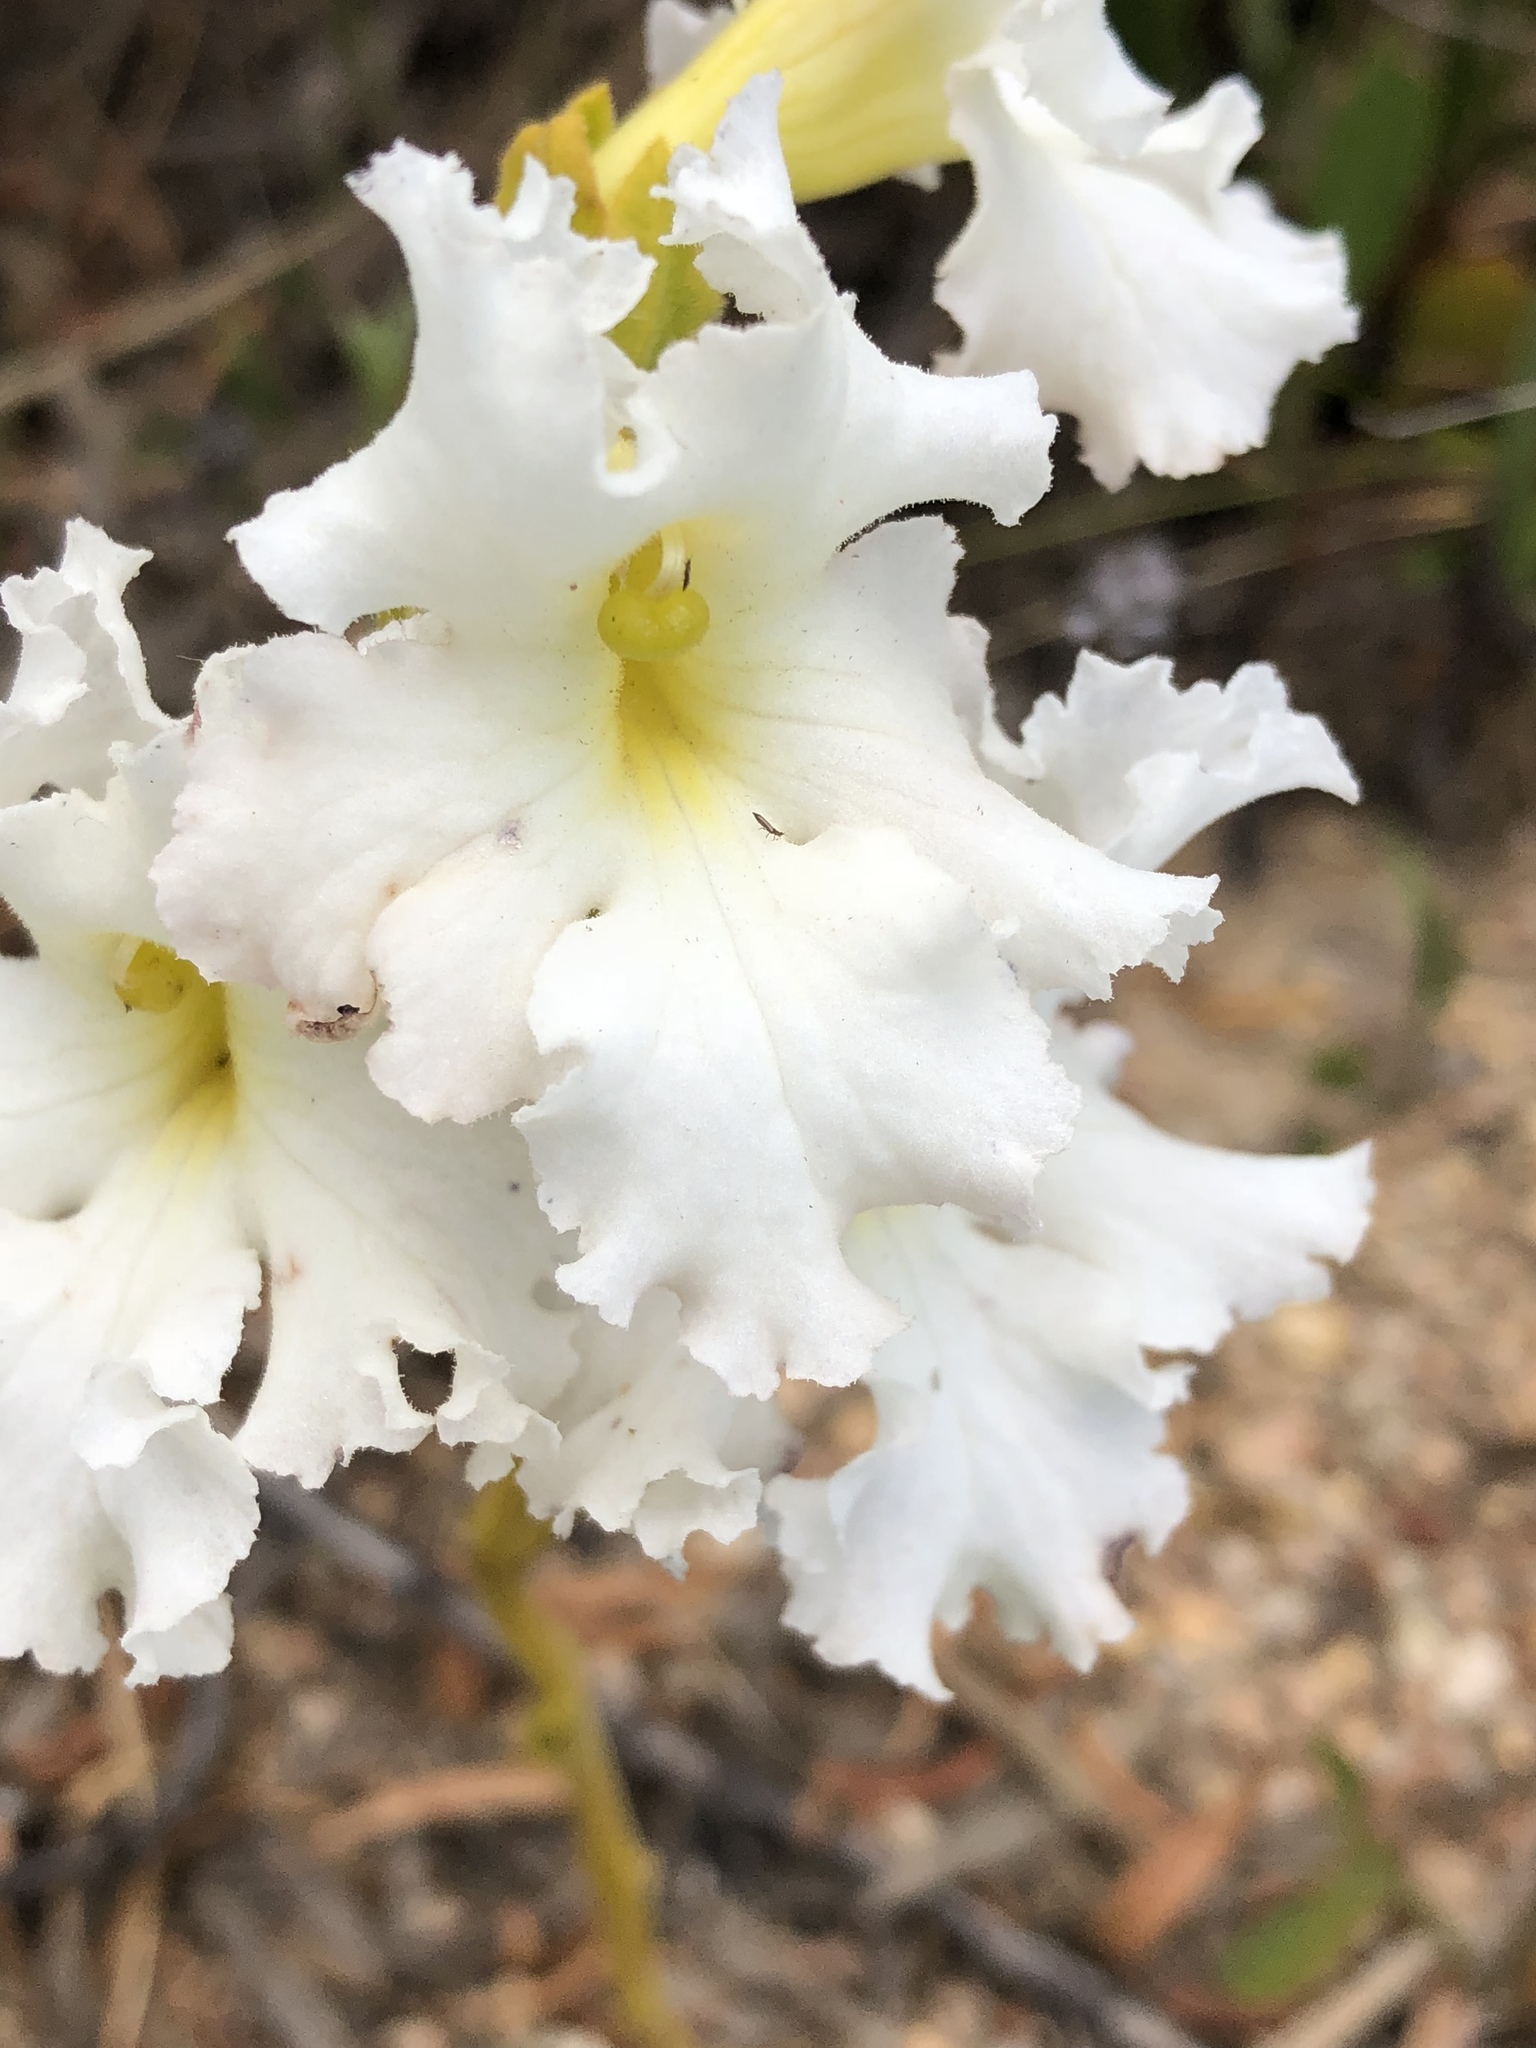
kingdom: Plantae
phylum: Tracheophyta
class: Magnoliopsida
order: Lamiales
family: Orobanchaceae
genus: Harveya
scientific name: Harveya capensis
